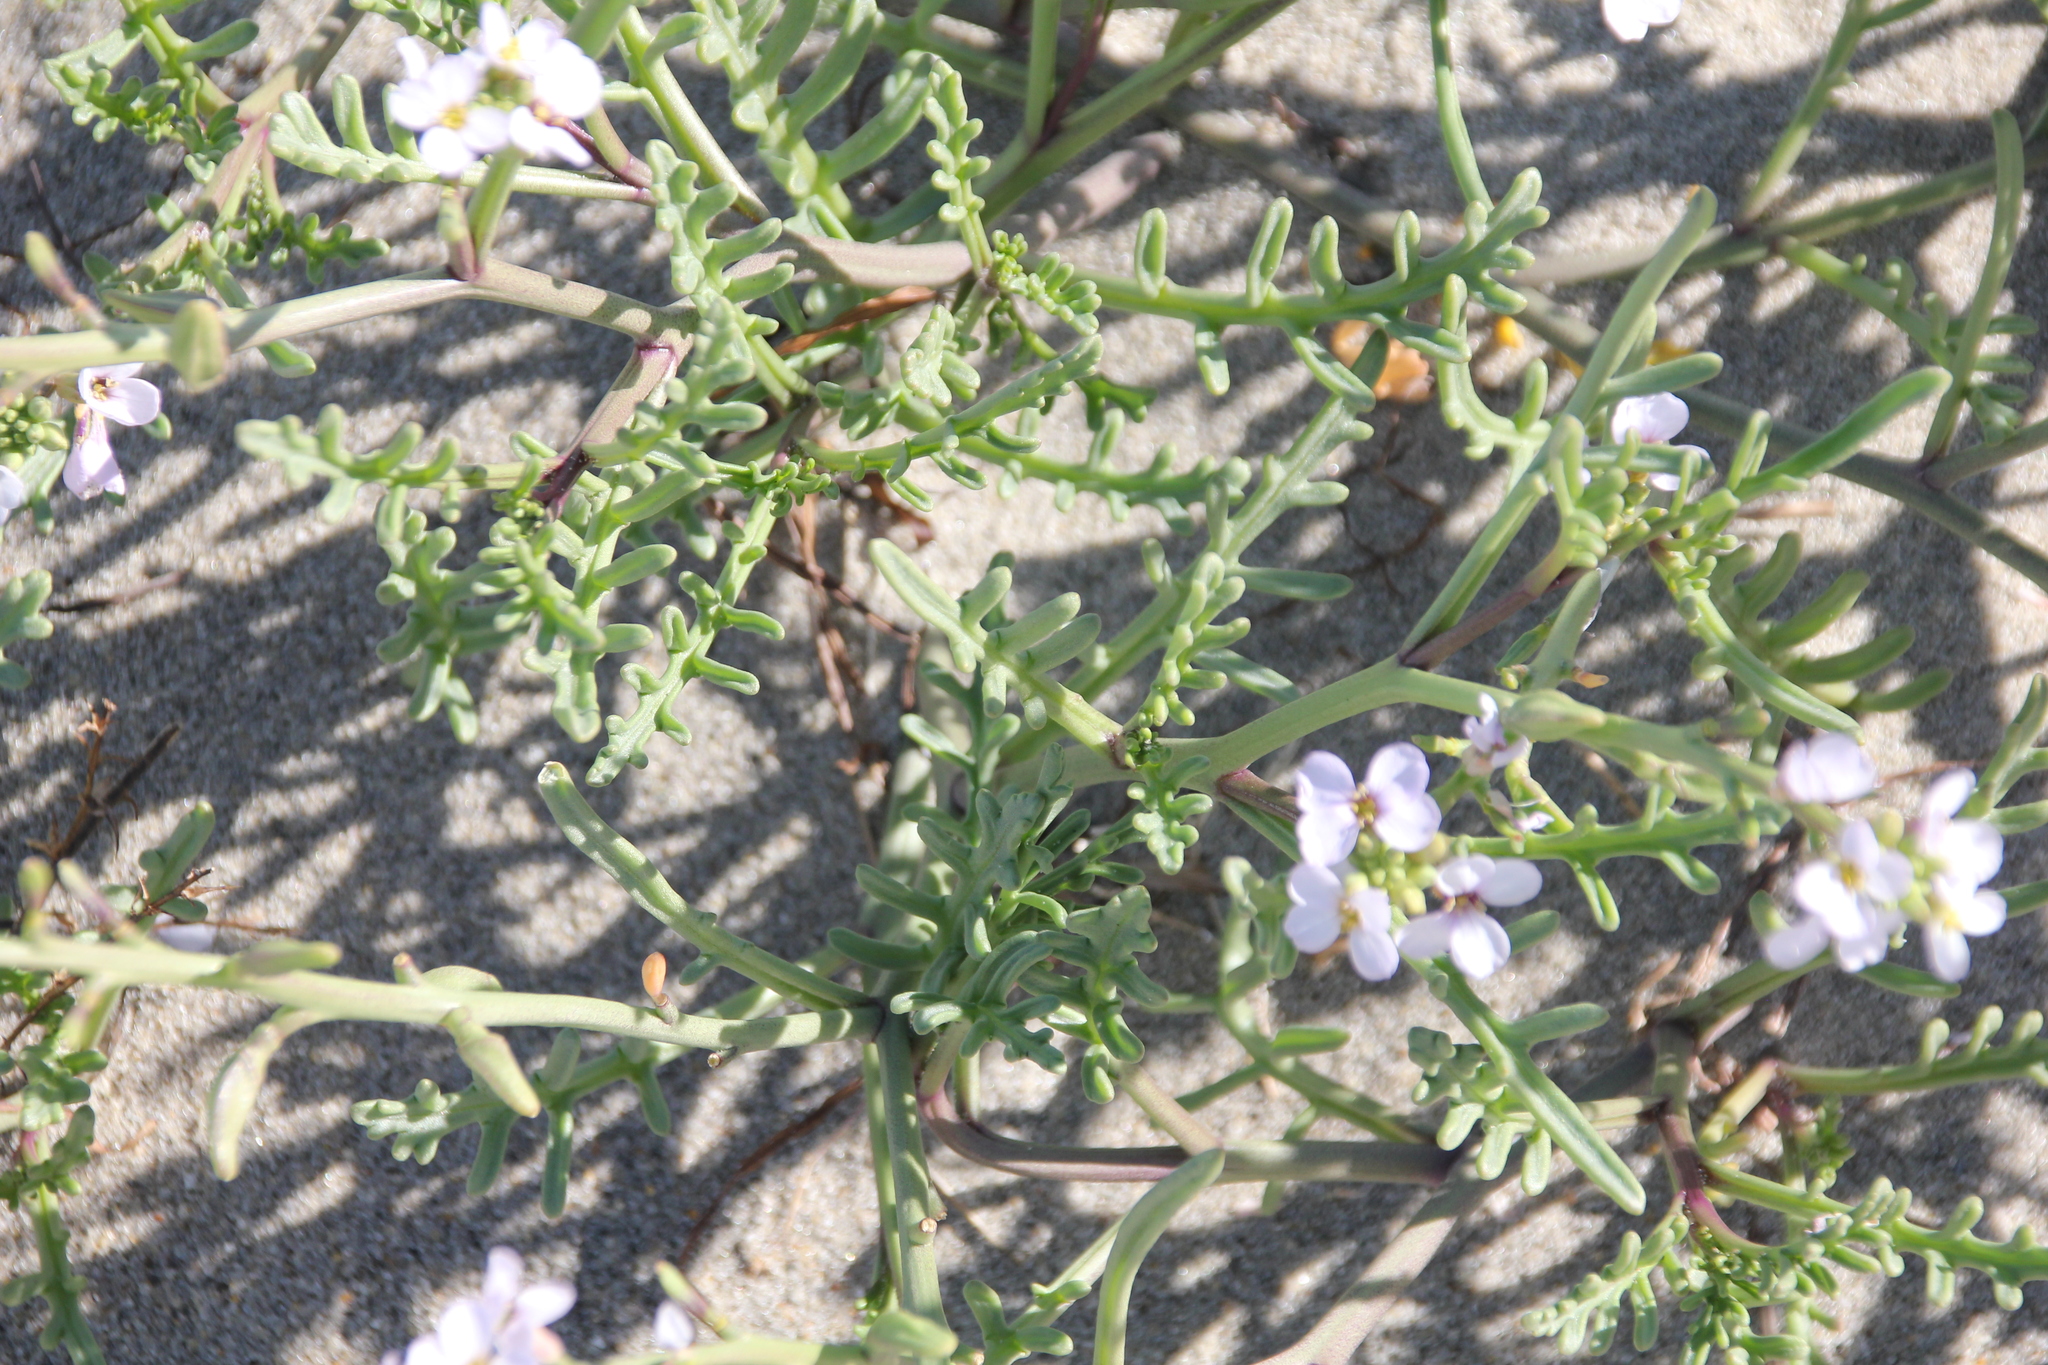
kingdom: Plantae
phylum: Tracheophyta
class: Magnoliopsida
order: Brassicales
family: Brassicaceae
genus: Cakile
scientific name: Cakile maritima
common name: Sea rocket
